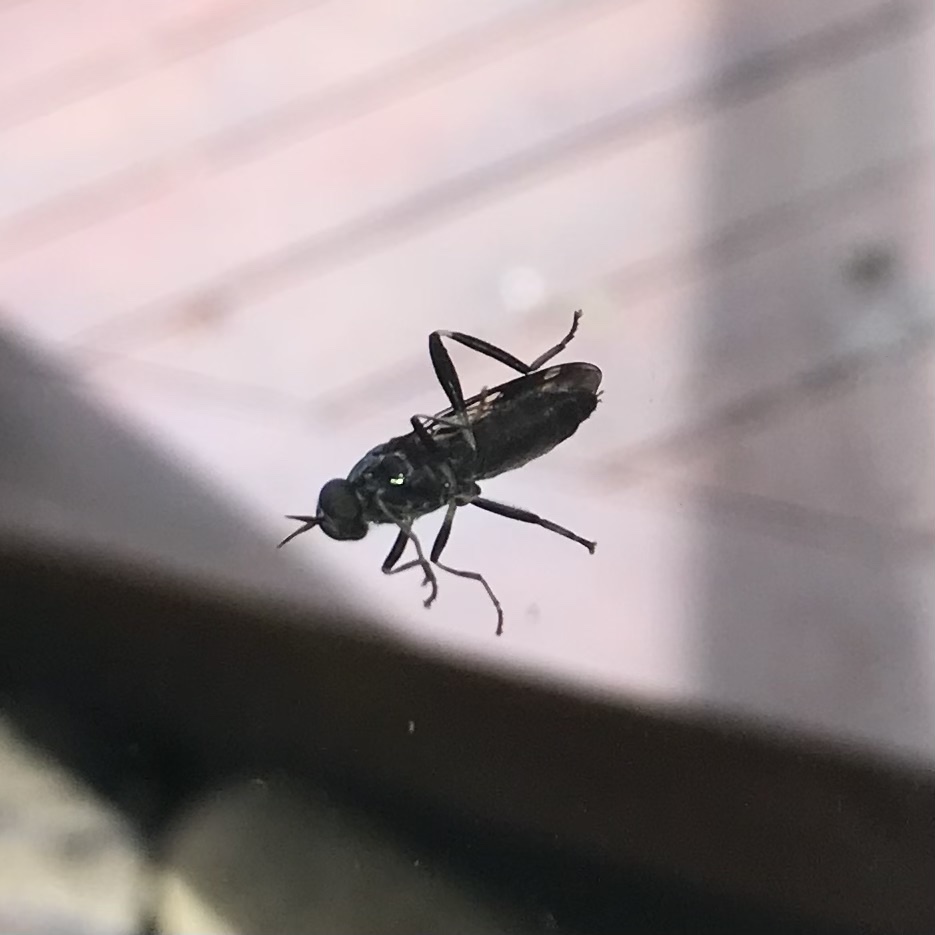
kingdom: Animalia
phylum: Arthropoda
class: Insecta
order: Diptera
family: Stratiomyidae
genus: Exaireta
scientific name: Exaireta spinigera
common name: Blue soldier fly
